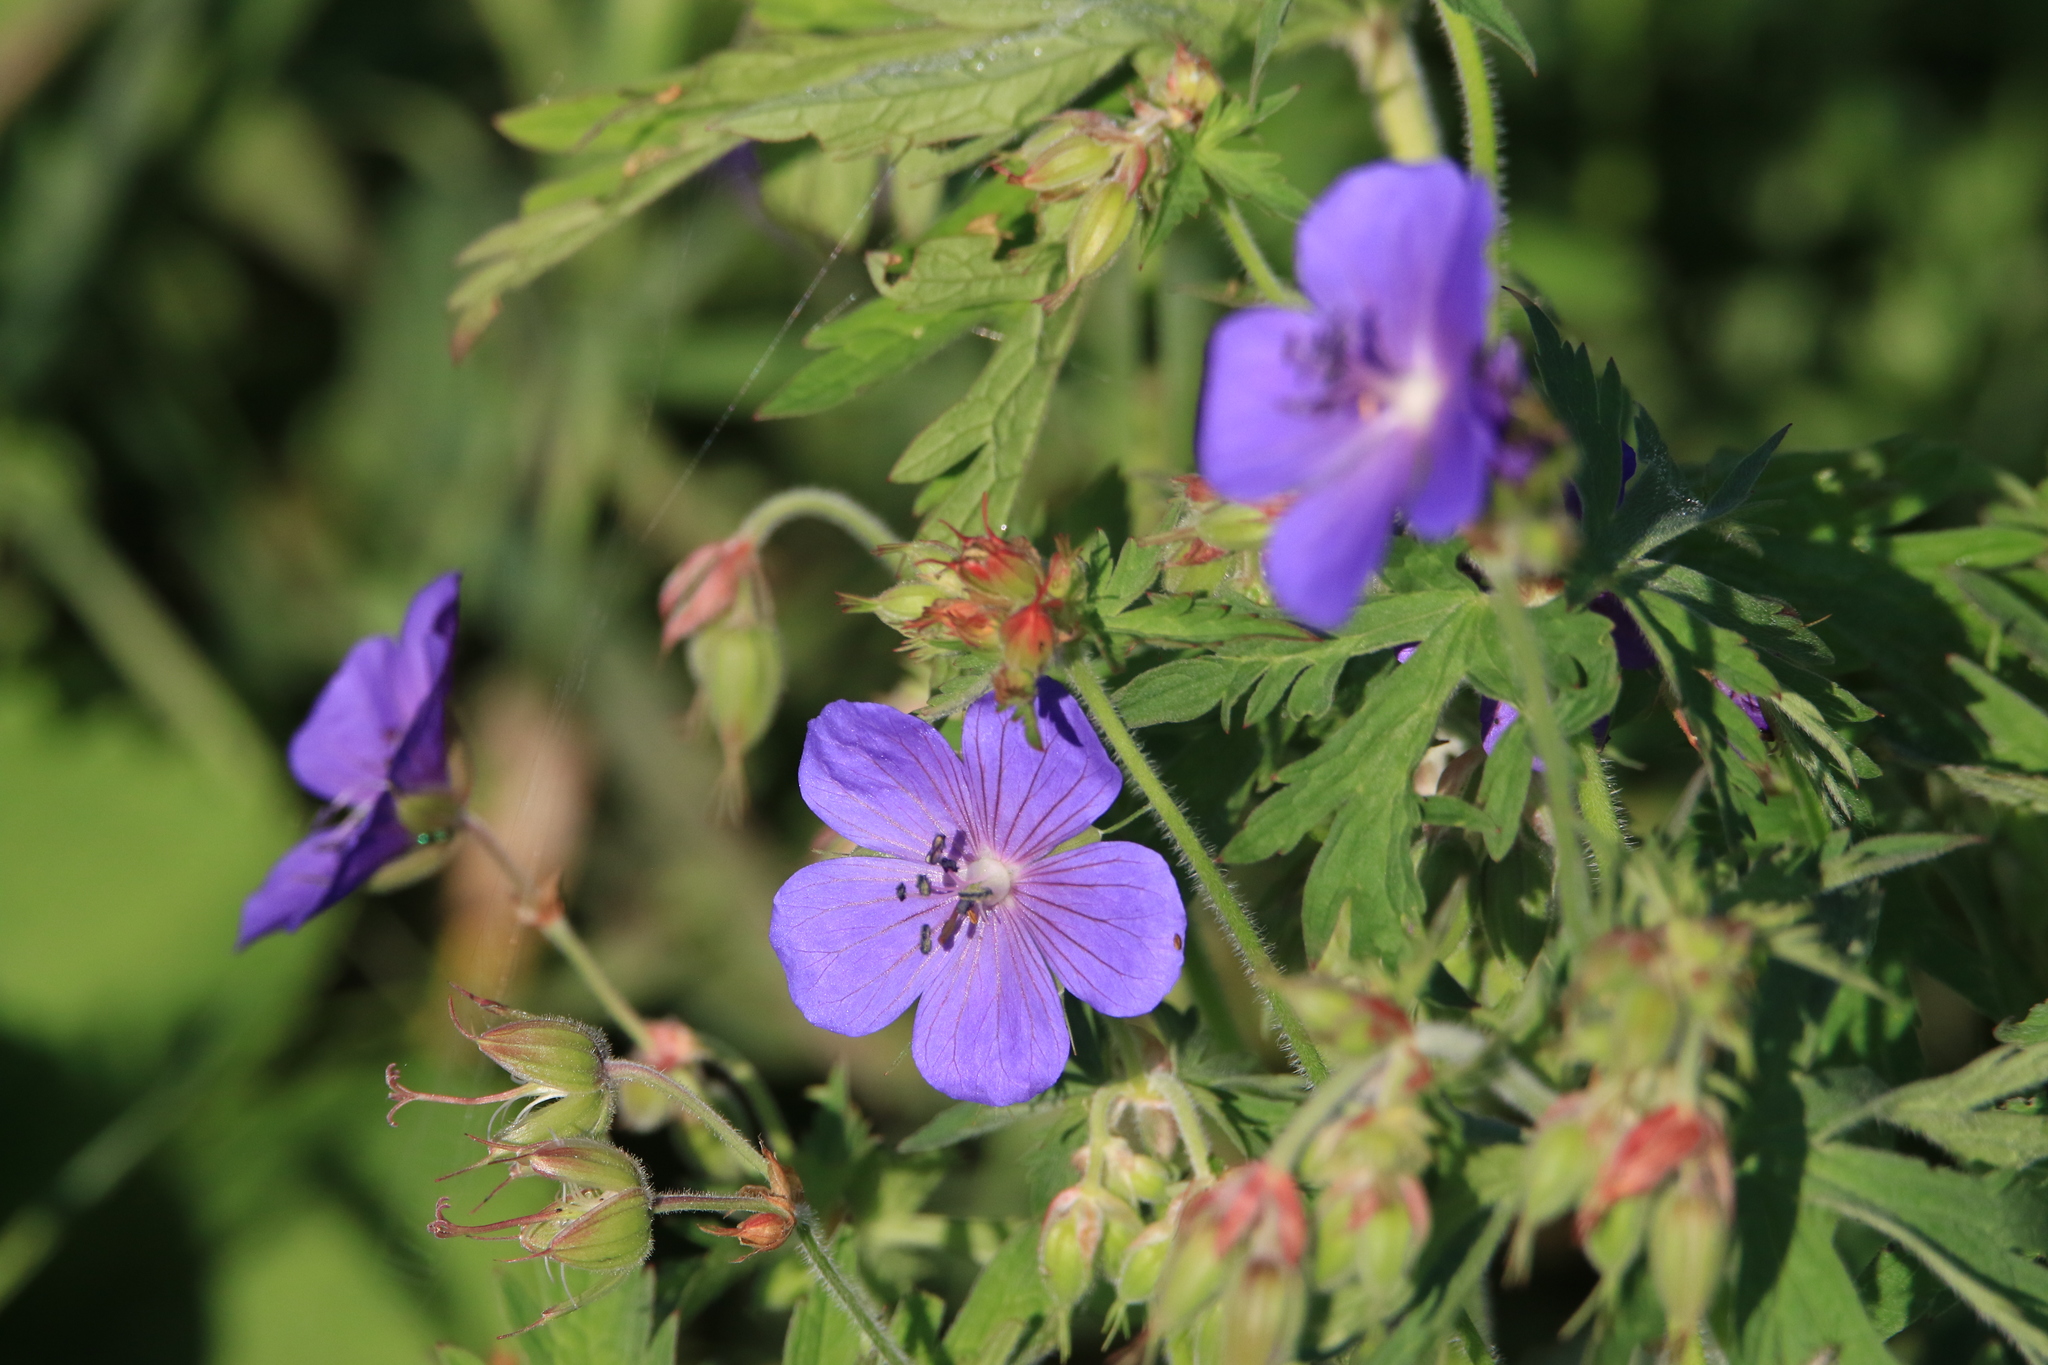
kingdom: Plantae
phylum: Tracheophyta
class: Magnoliopsida
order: Geraniales
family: Geraniaceae
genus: Geranium
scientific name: Geranium pratense
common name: Meadow crane's-bill
